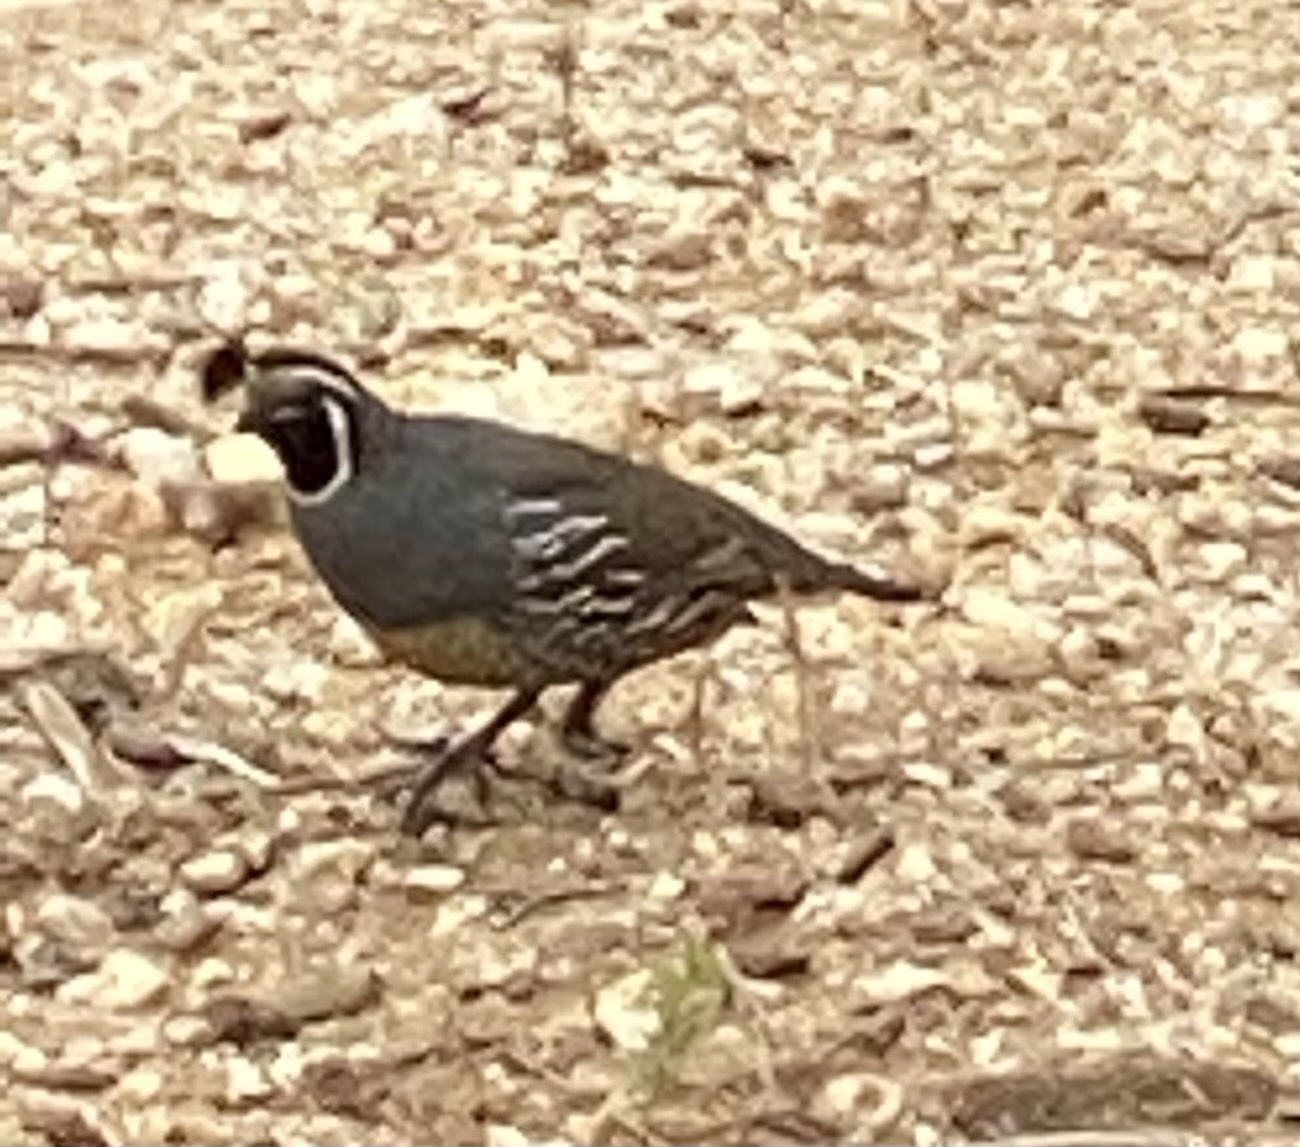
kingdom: Animalia
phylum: Chordata
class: Aves
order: Galliformes
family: Odontophoridae
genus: Callipepla
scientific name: Callipepla californica
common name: California quail
